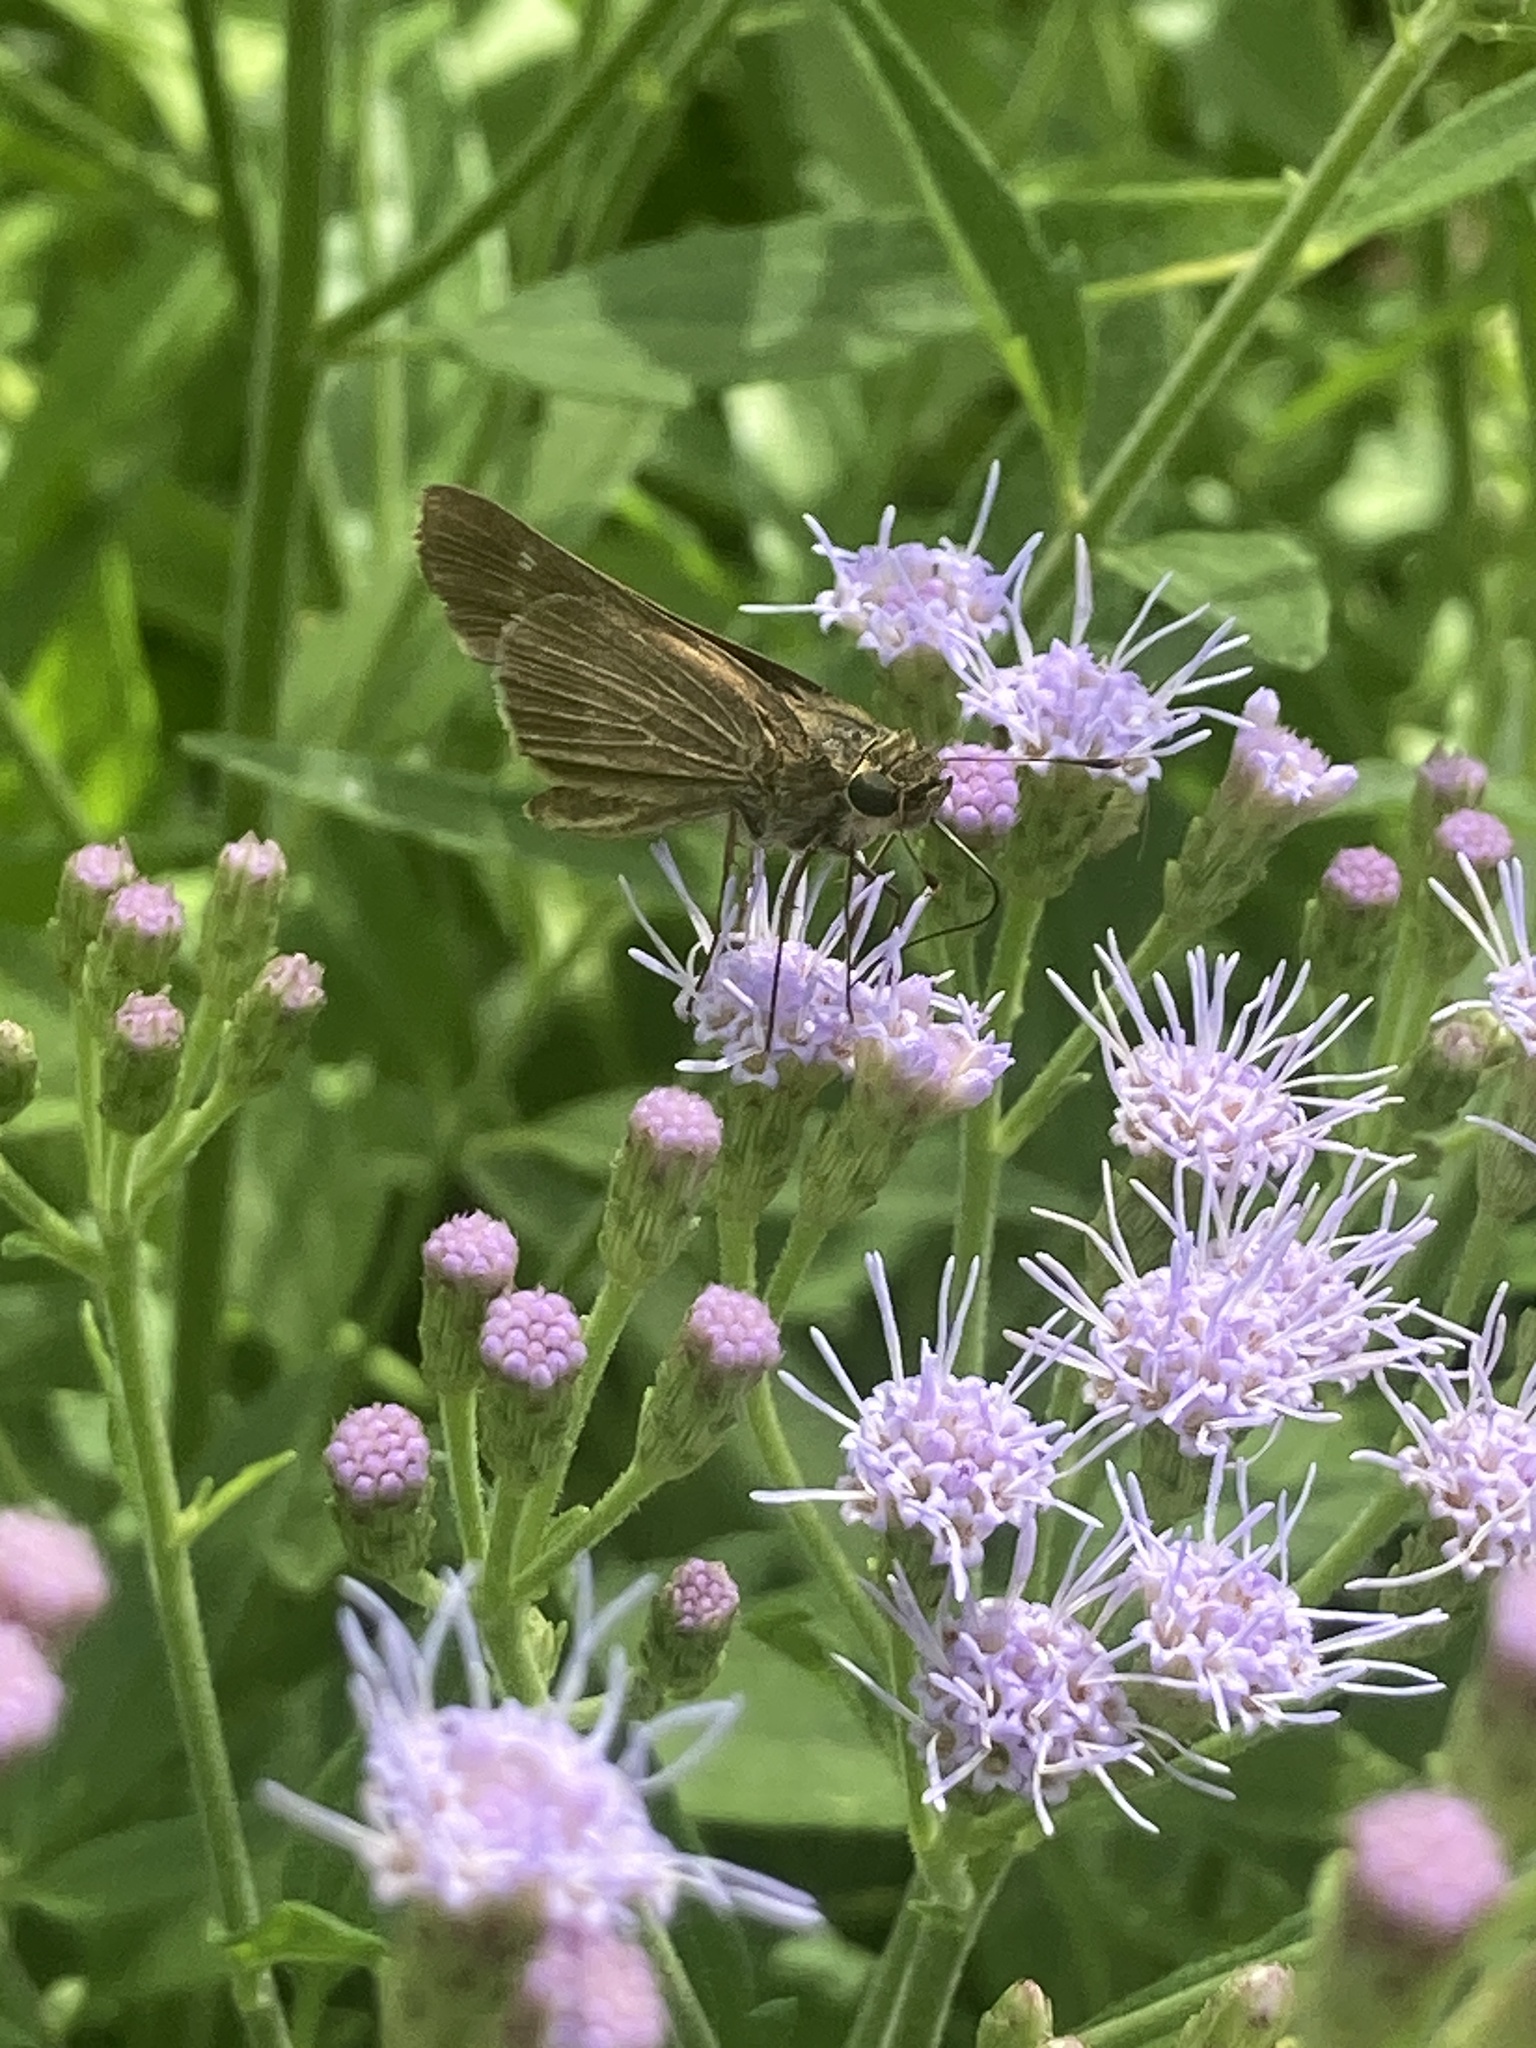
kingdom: Animalia
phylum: Arthropoda
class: Insecta
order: Lepidoptera
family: Hesperiidae
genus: Panoquina
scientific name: Panoquina ocola
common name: Ocola skipper
